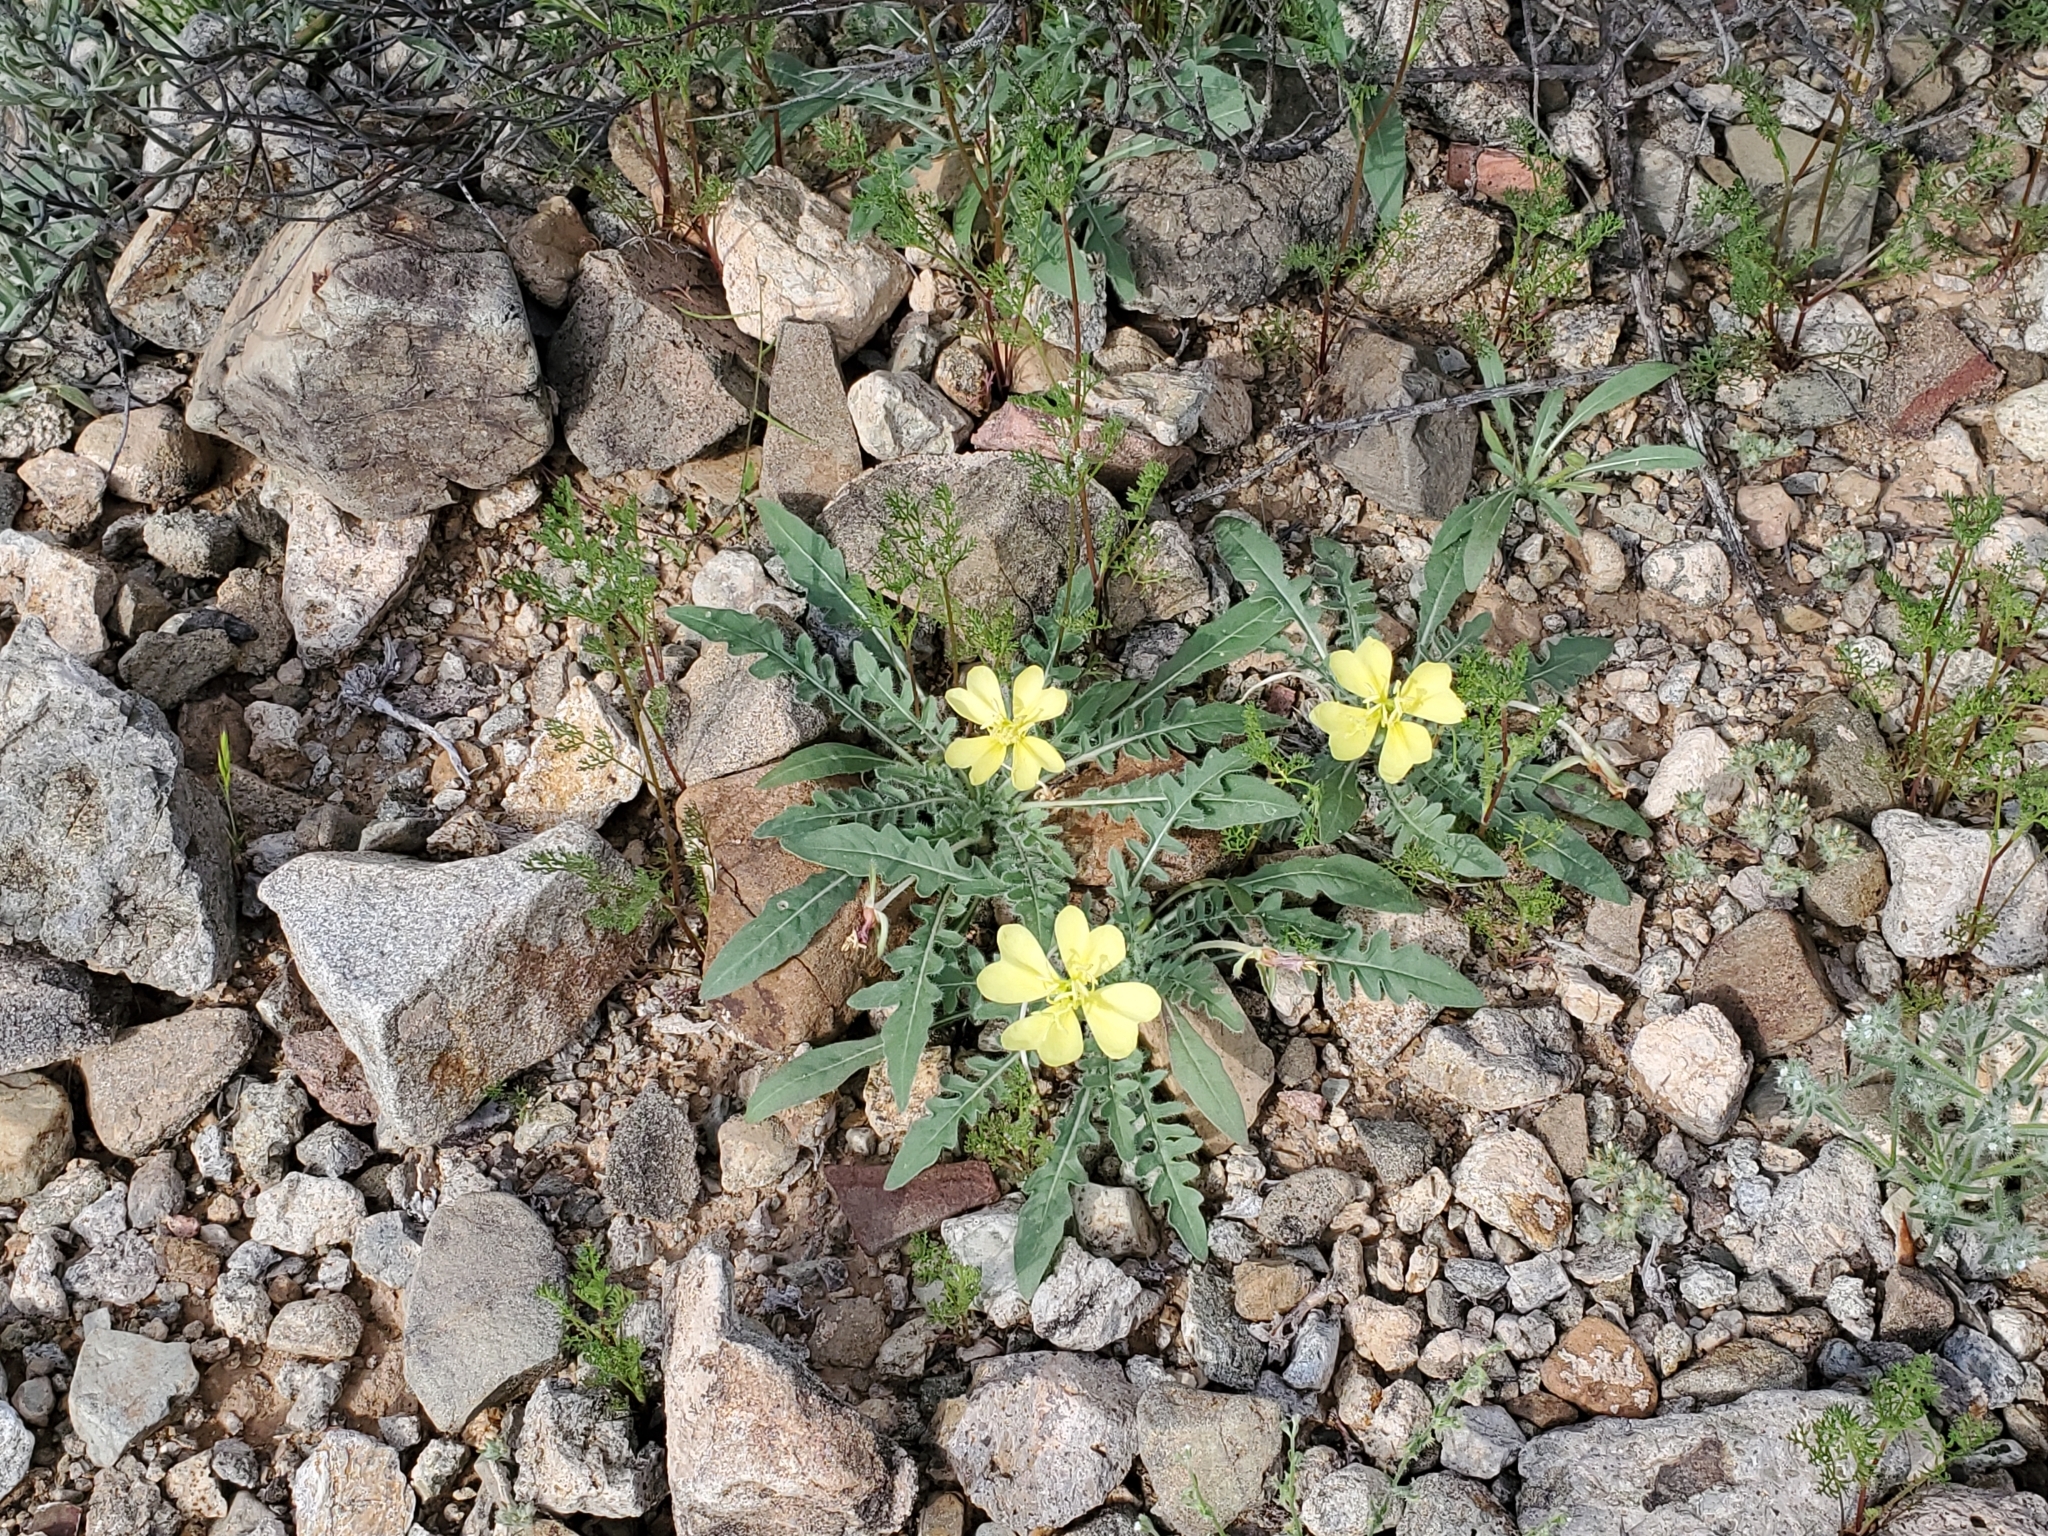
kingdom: Plantae
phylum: Tracheophyta
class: Magnoliopsida
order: Myrtales
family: Onagraceae
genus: Oenothera
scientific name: Oenothera primiveris
